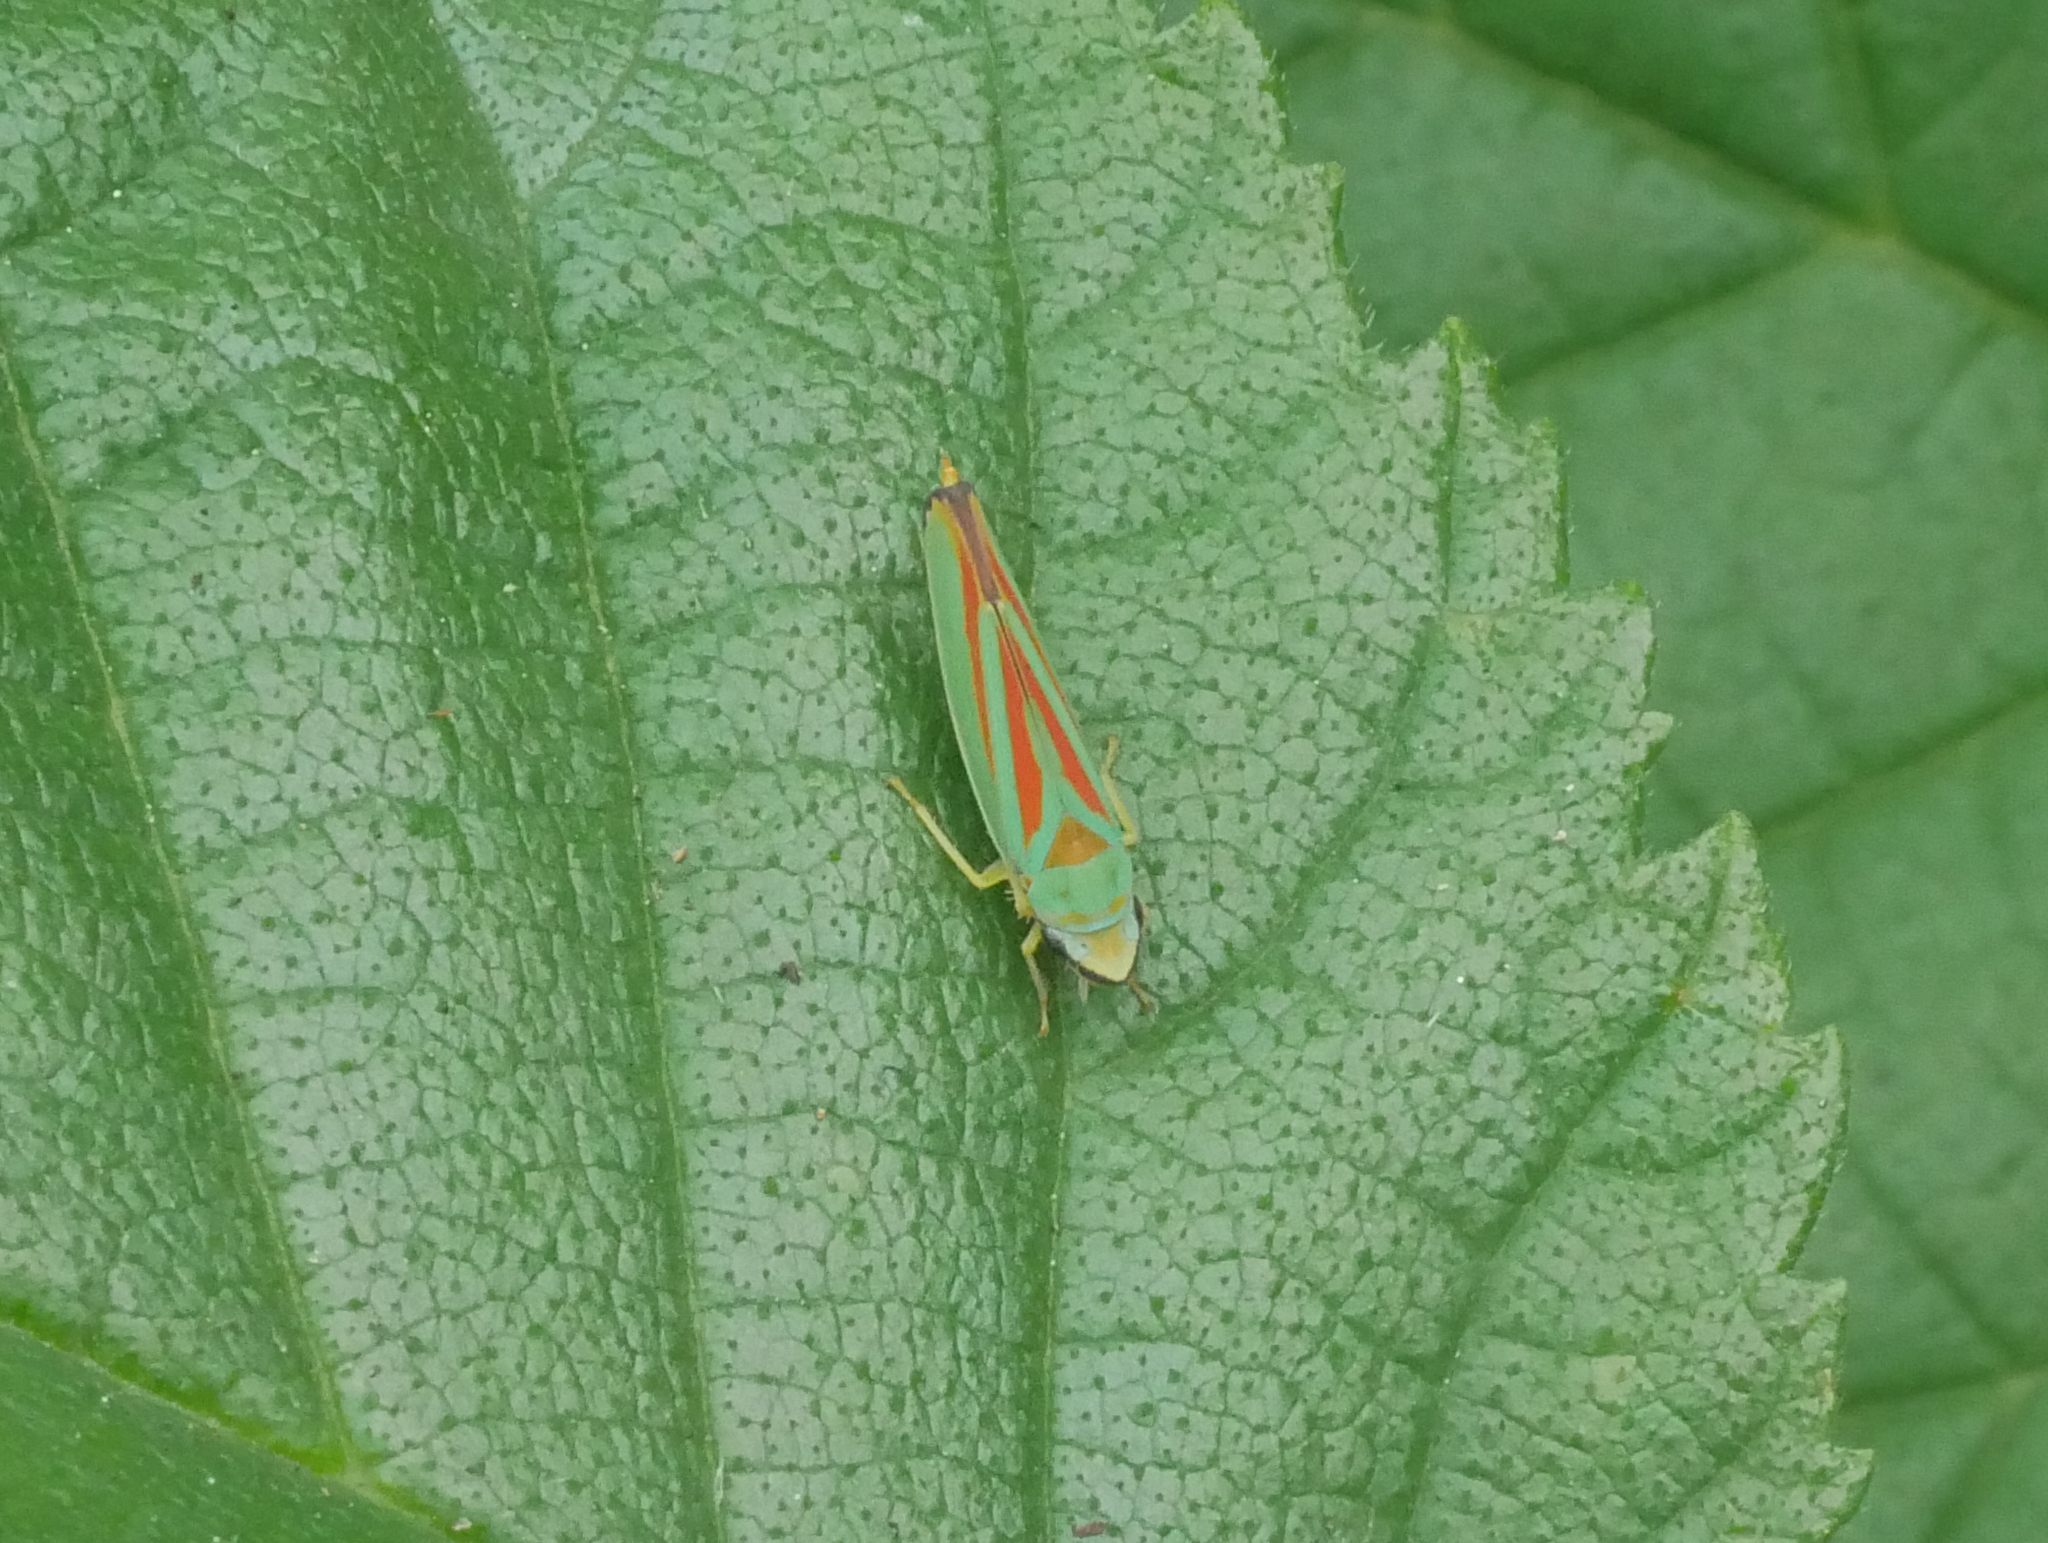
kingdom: Animalia
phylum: Arthropoda
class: Insecta
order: Hemiptera
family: Cicadellidae
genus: Graphocephala
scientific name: Graphocephala fennahi
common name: Rhododendron leafhopper
